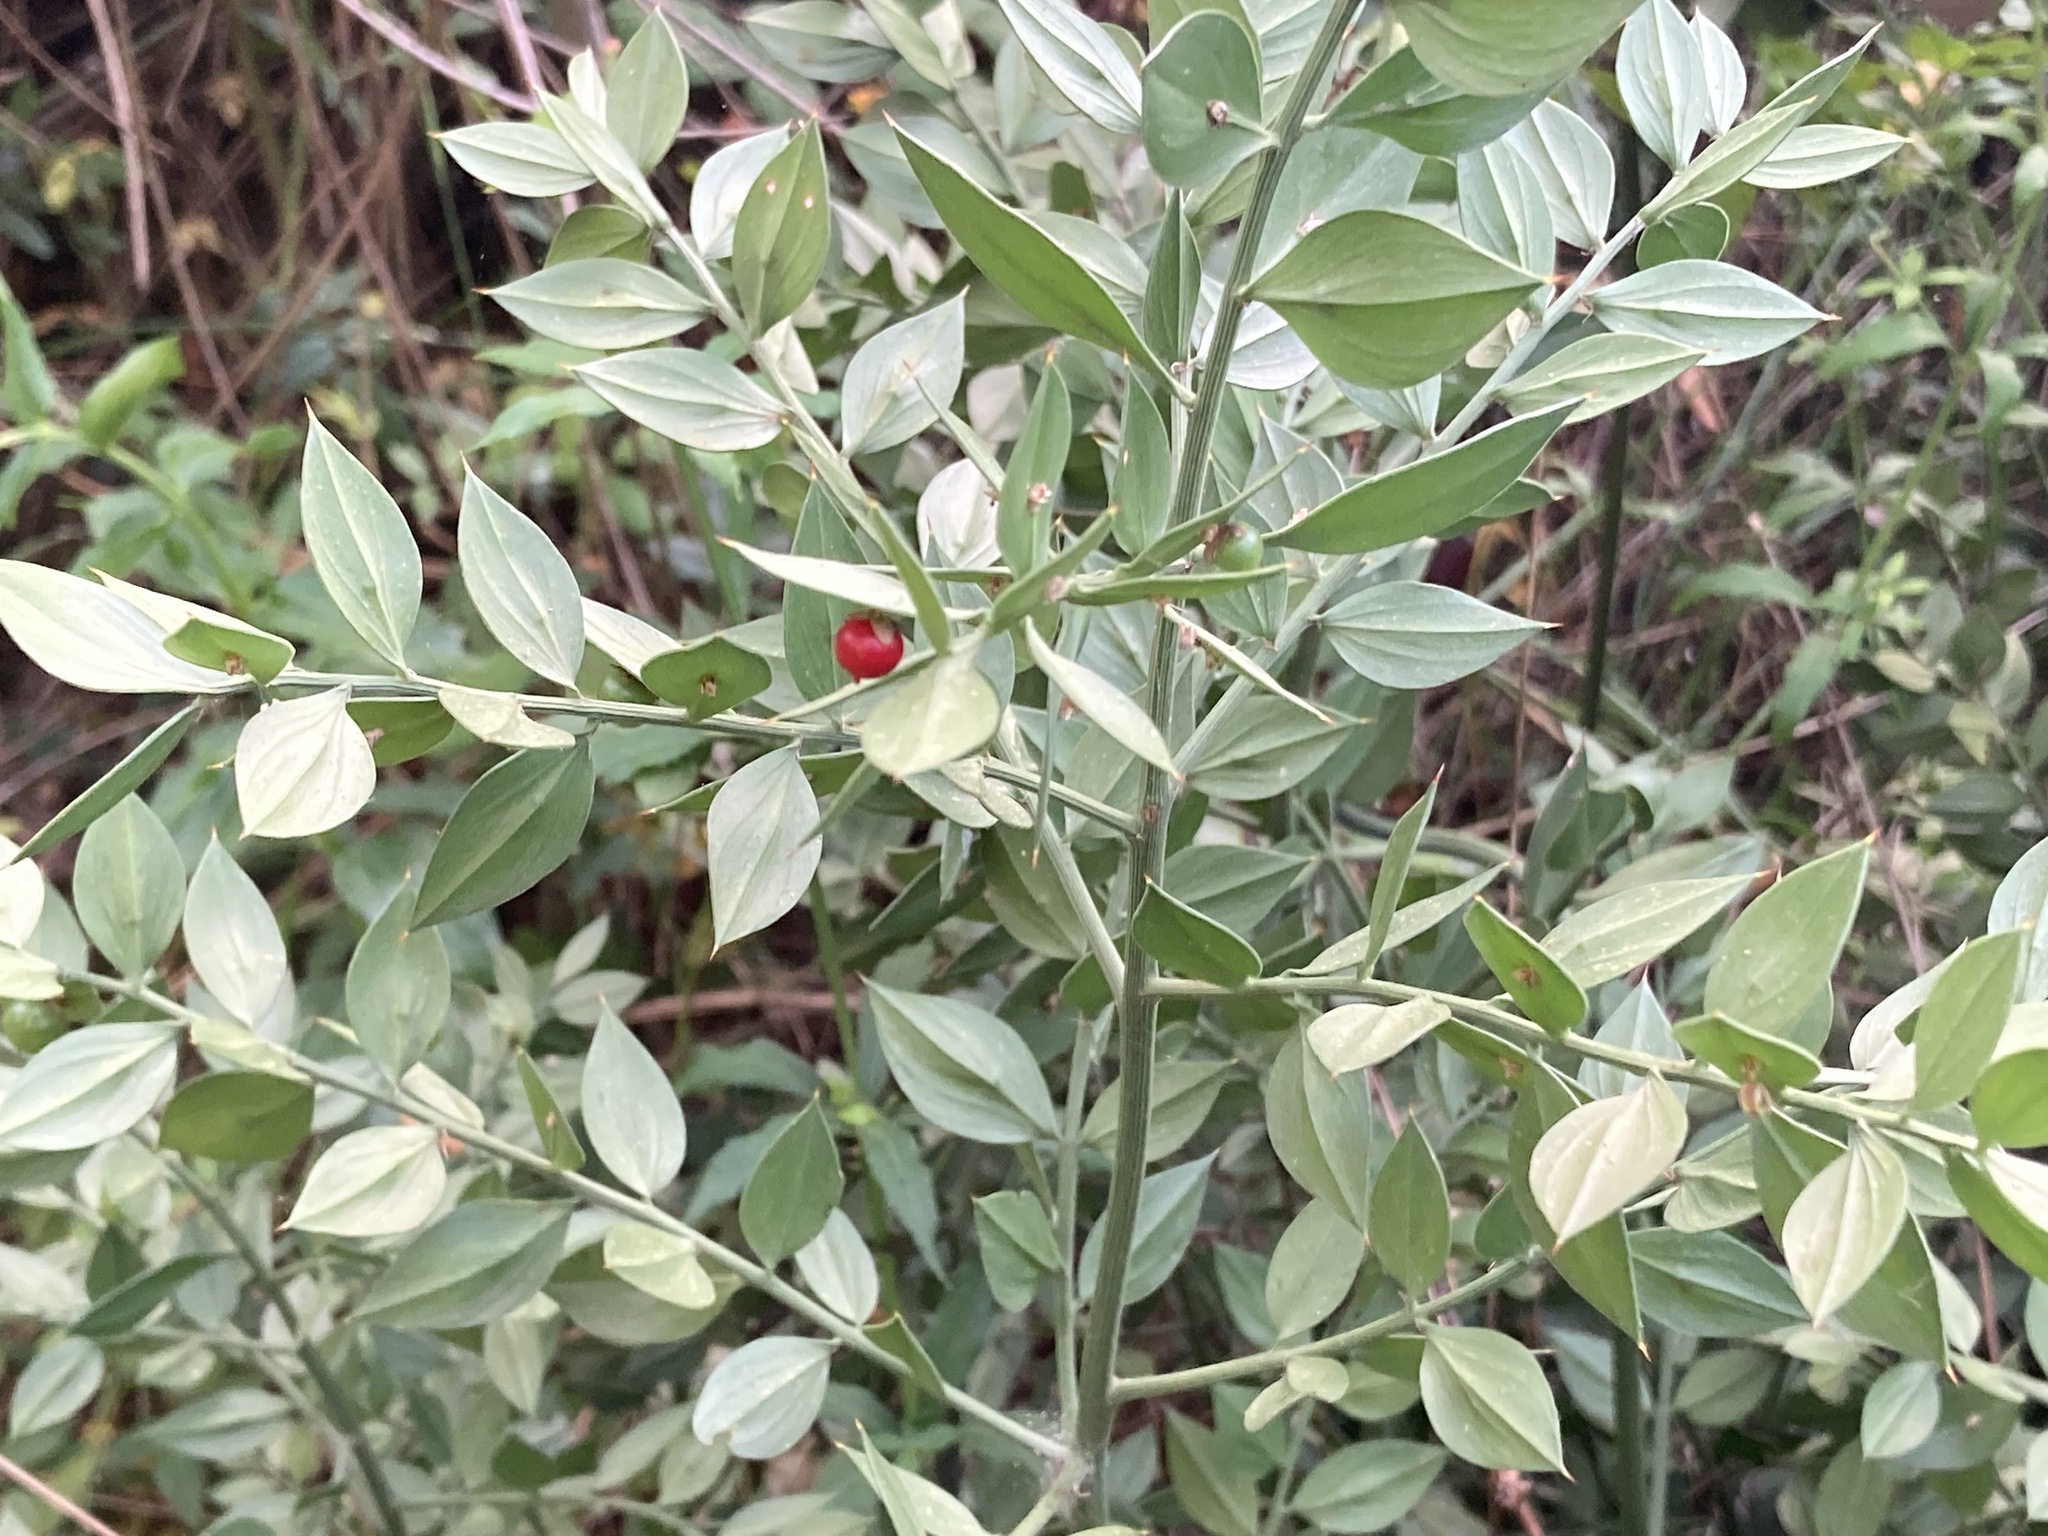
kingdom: Plantae
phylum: Tracheophyta
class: Liliopsida
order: Asparagales
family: Asparagaceae
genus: Ruscus
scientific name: Ruscus aculeatus
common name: Butcher's-broom
